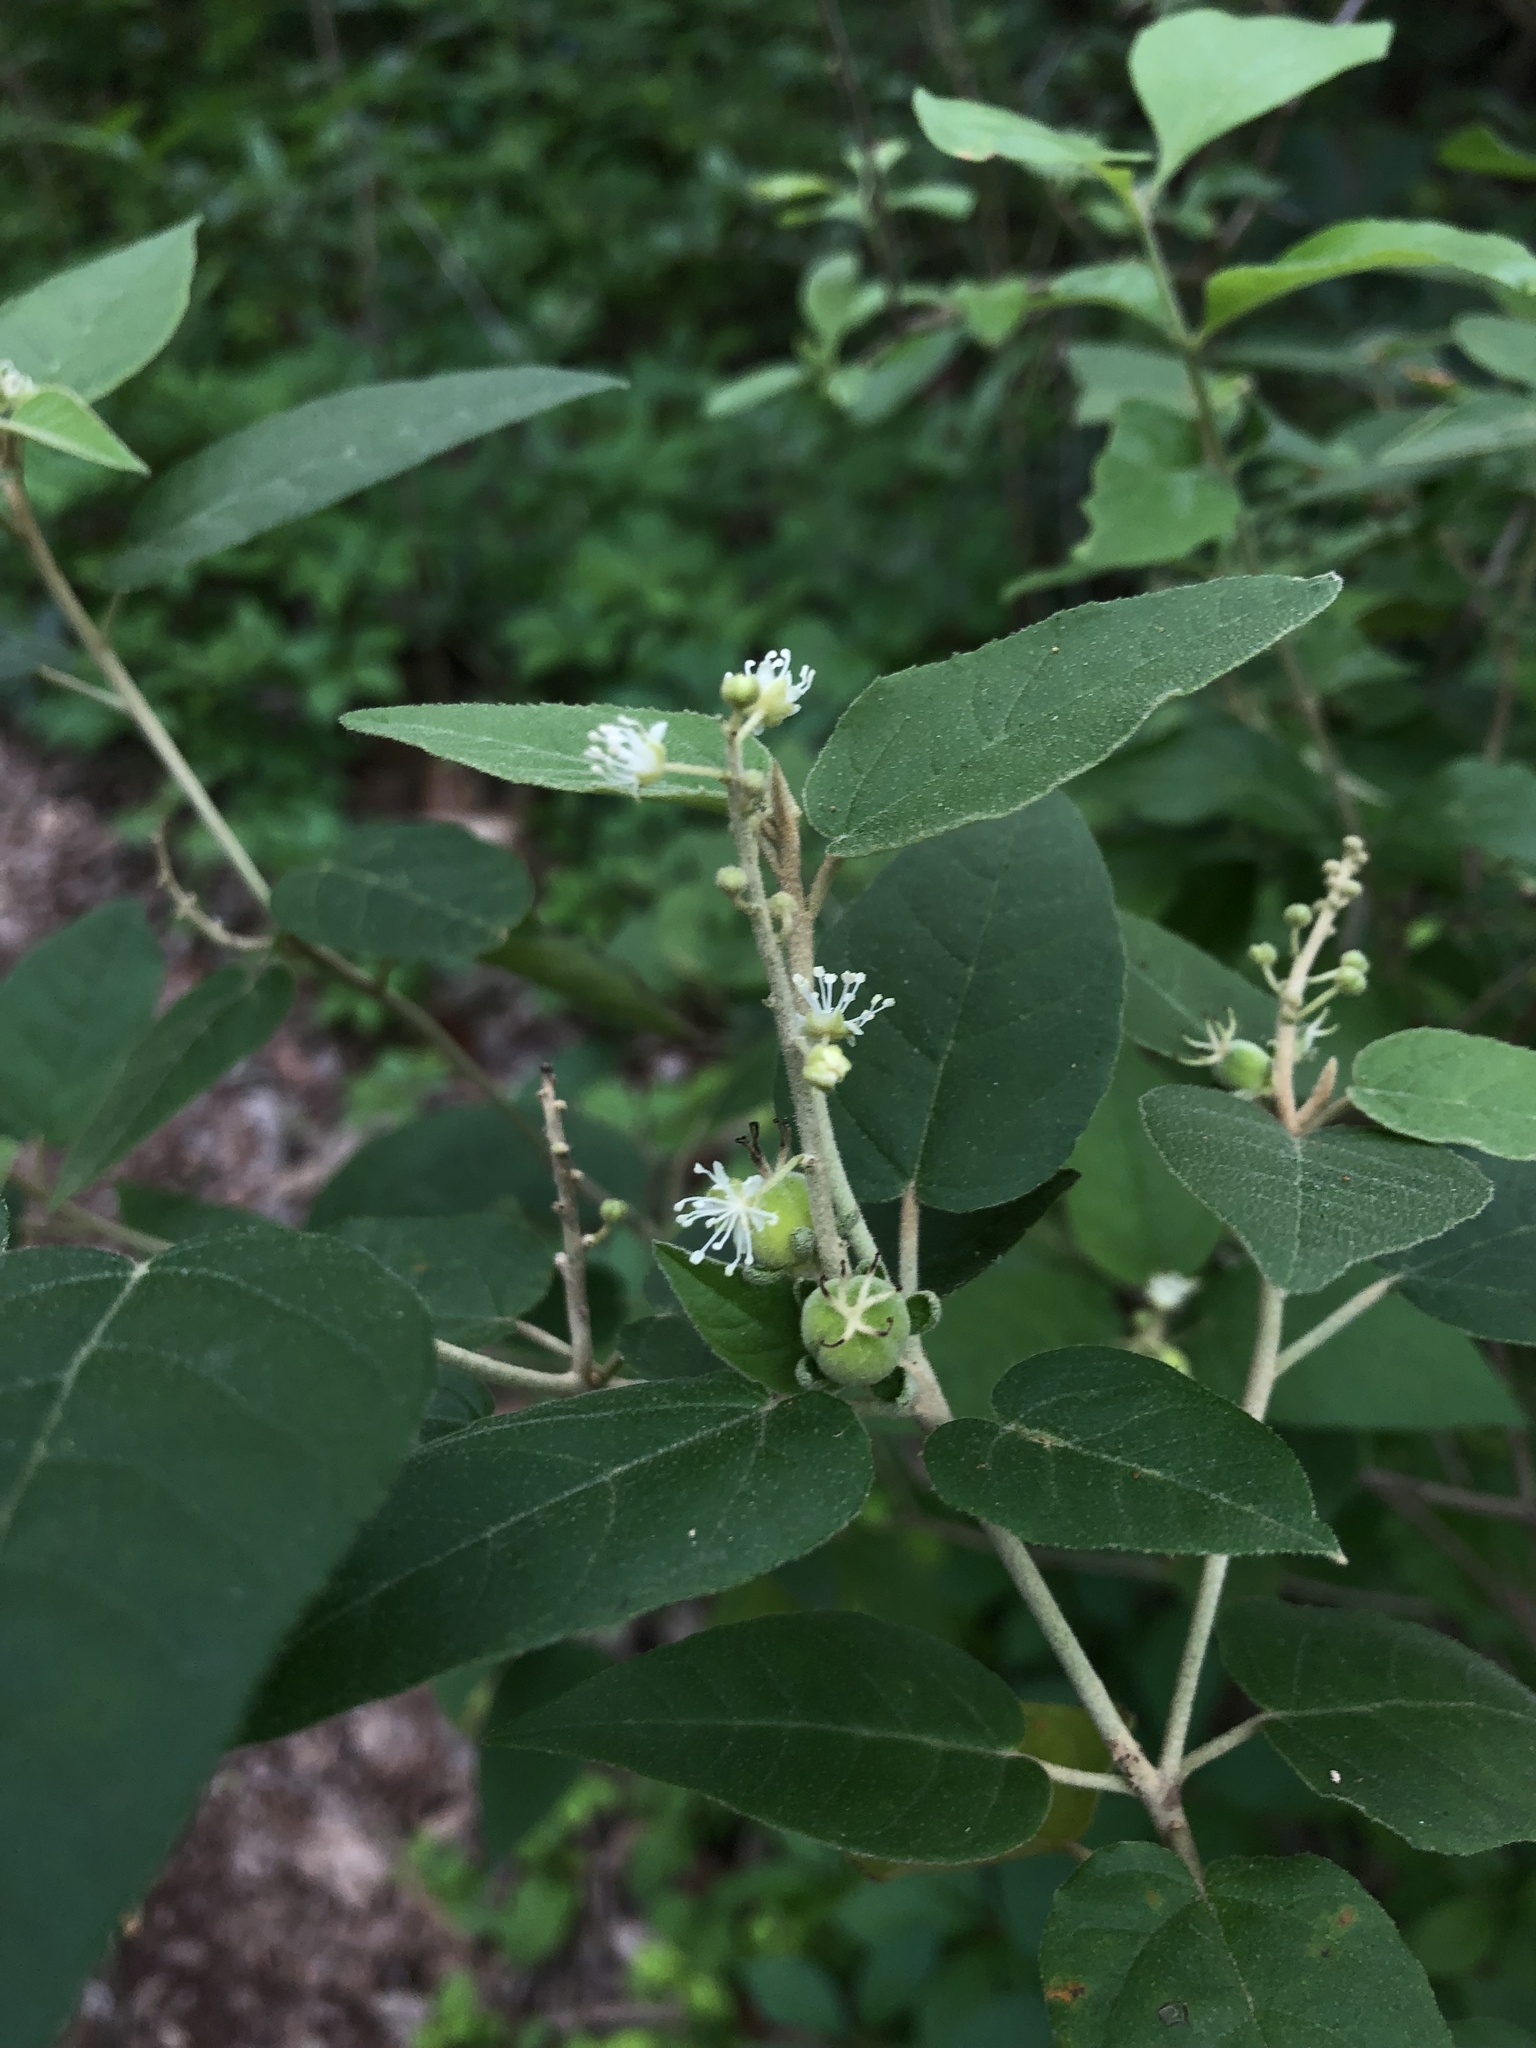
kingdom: Plantae
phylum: Tracheophyta
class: Magnoliopsida
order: Malpighiales
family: Euphorbiaceae
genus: Croton
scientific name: Croton fruticulosus
